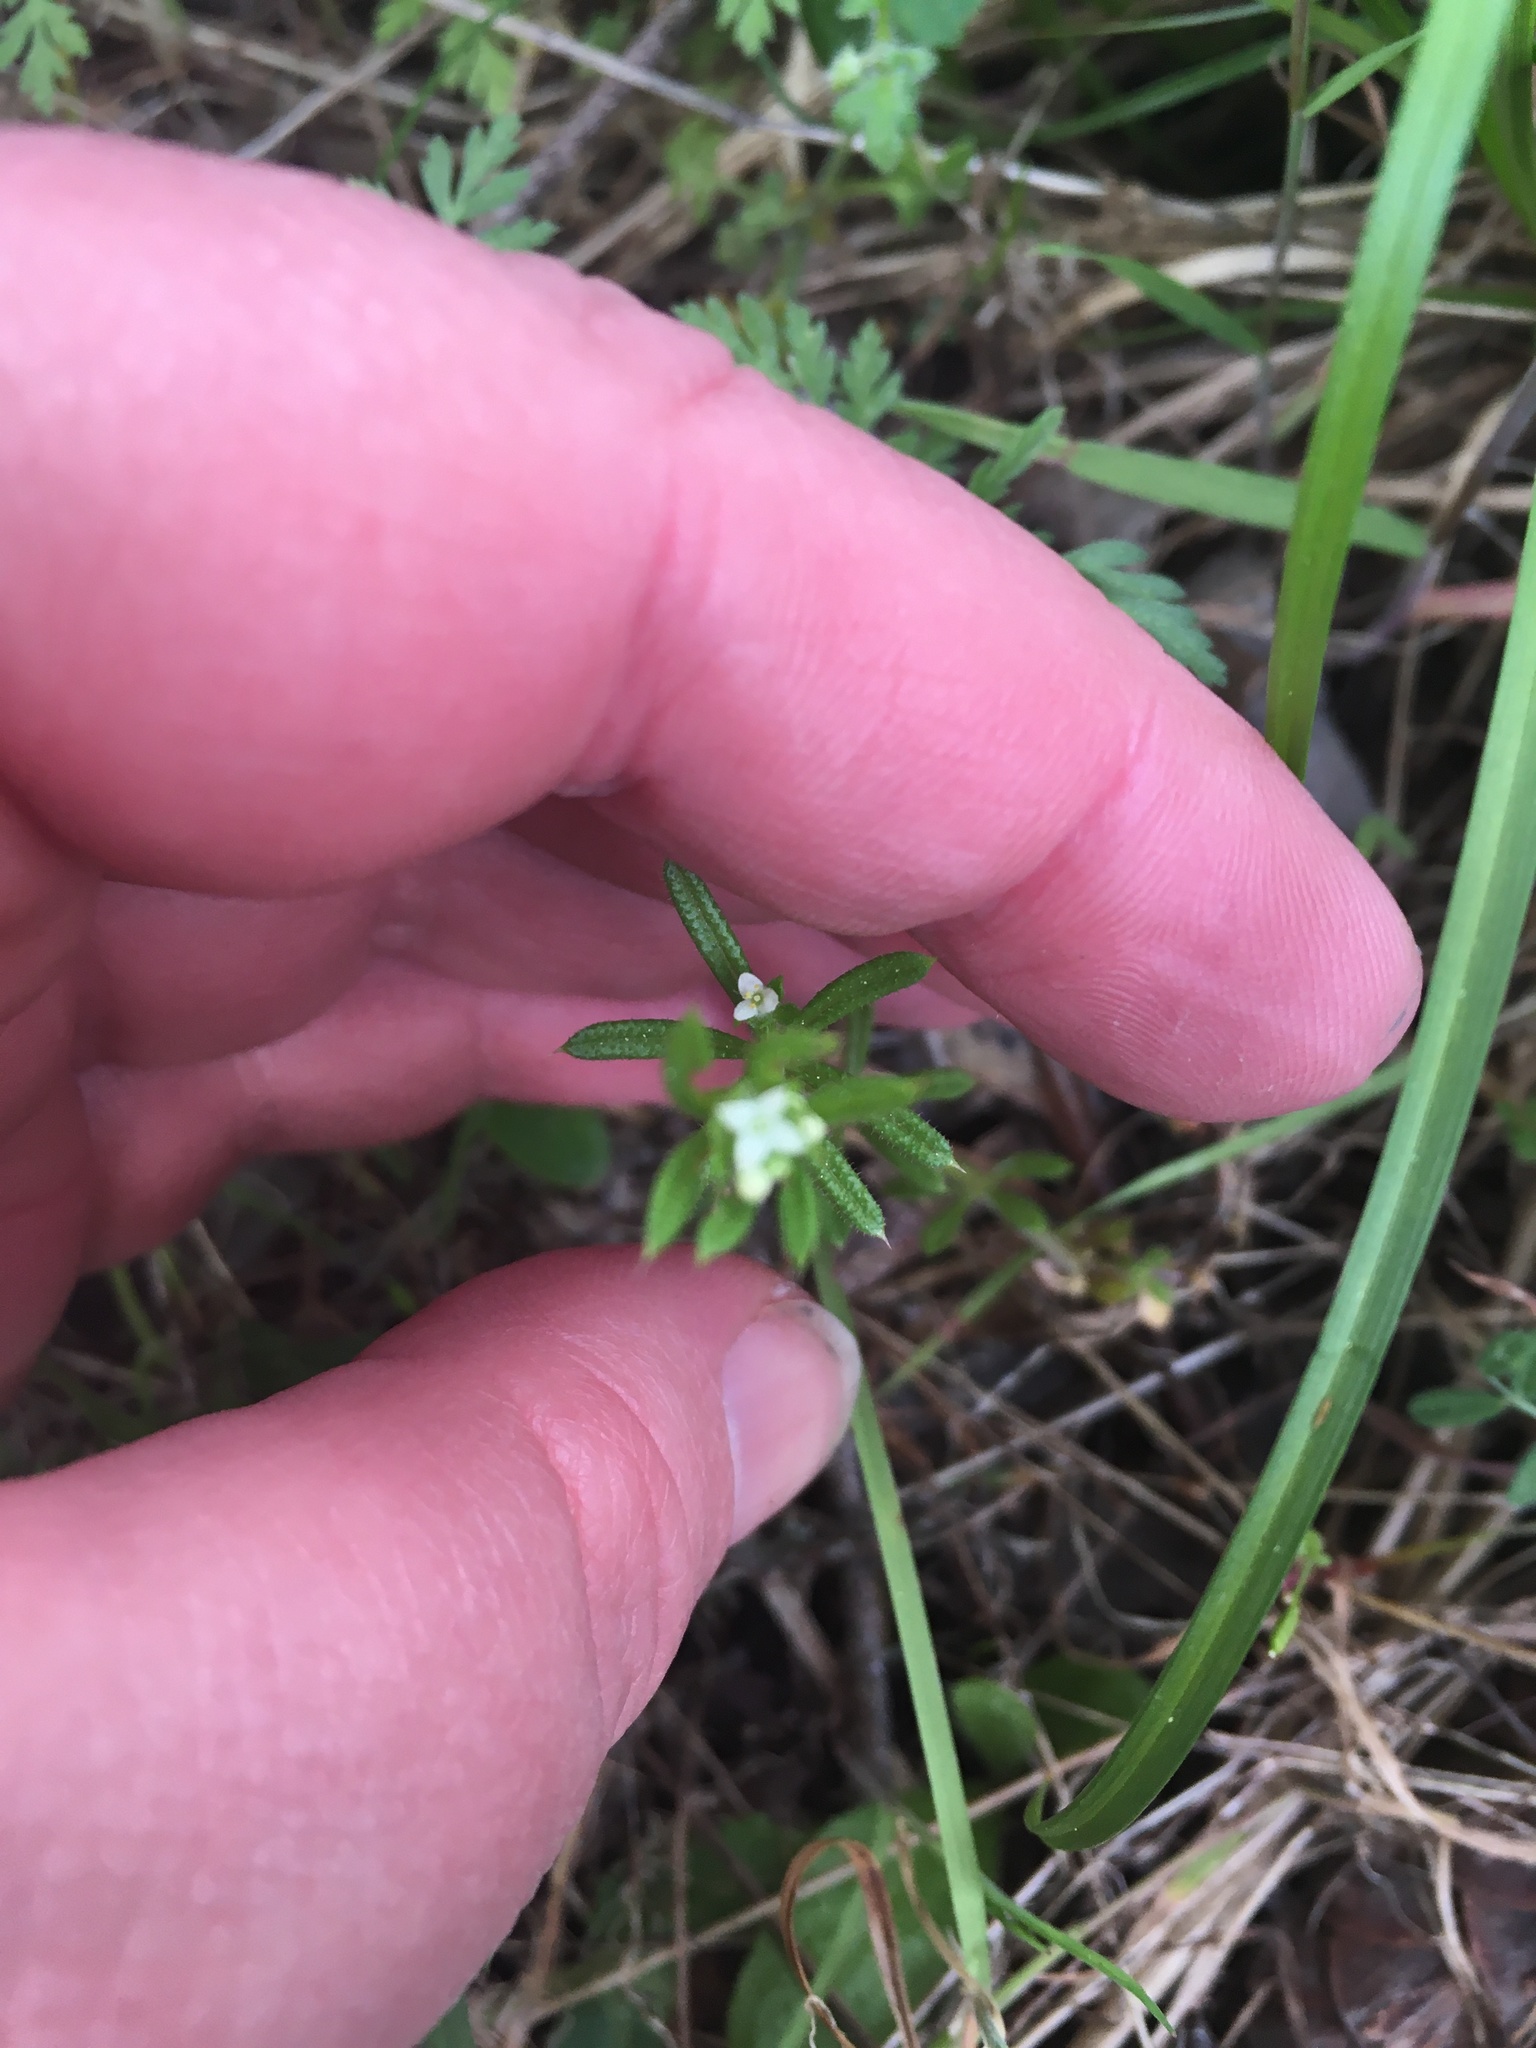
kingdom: Plantae
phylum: Tracheophyta
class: Magnoliopsida
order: Gentianales
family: Rubiaceae
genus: Galium
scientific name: Galium aparine
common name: Cleavers
